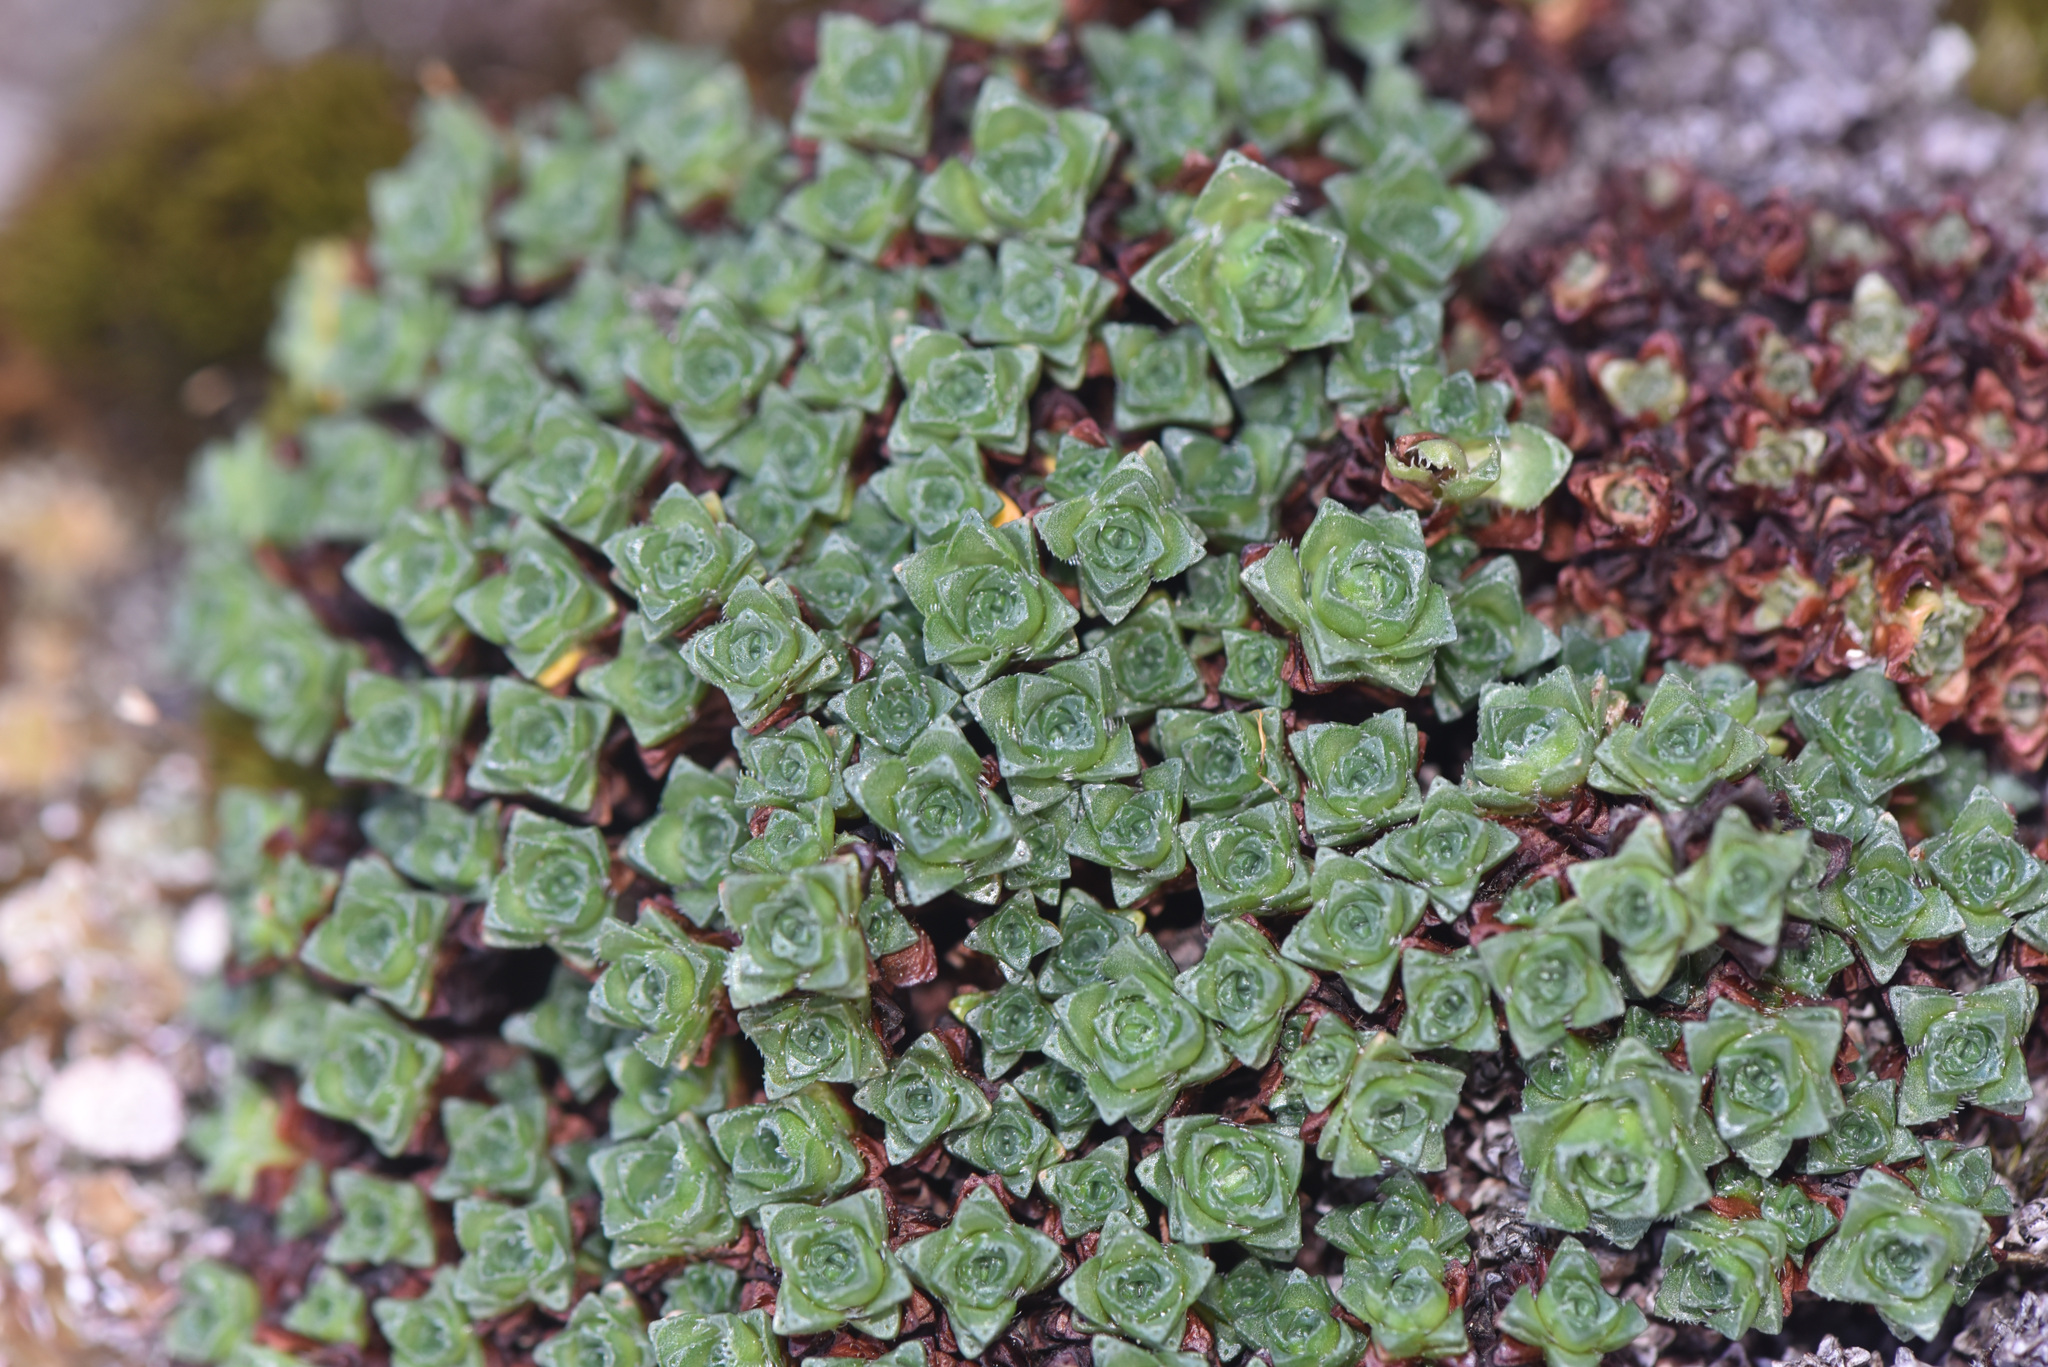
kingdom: Plantae
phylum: Tracheophyta
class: Magnoliopsida
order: Saxifragales
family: Saxifragaceae
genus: Saxifraga
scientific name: Saxifraga oppositifolia
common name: Purple saxifrage
